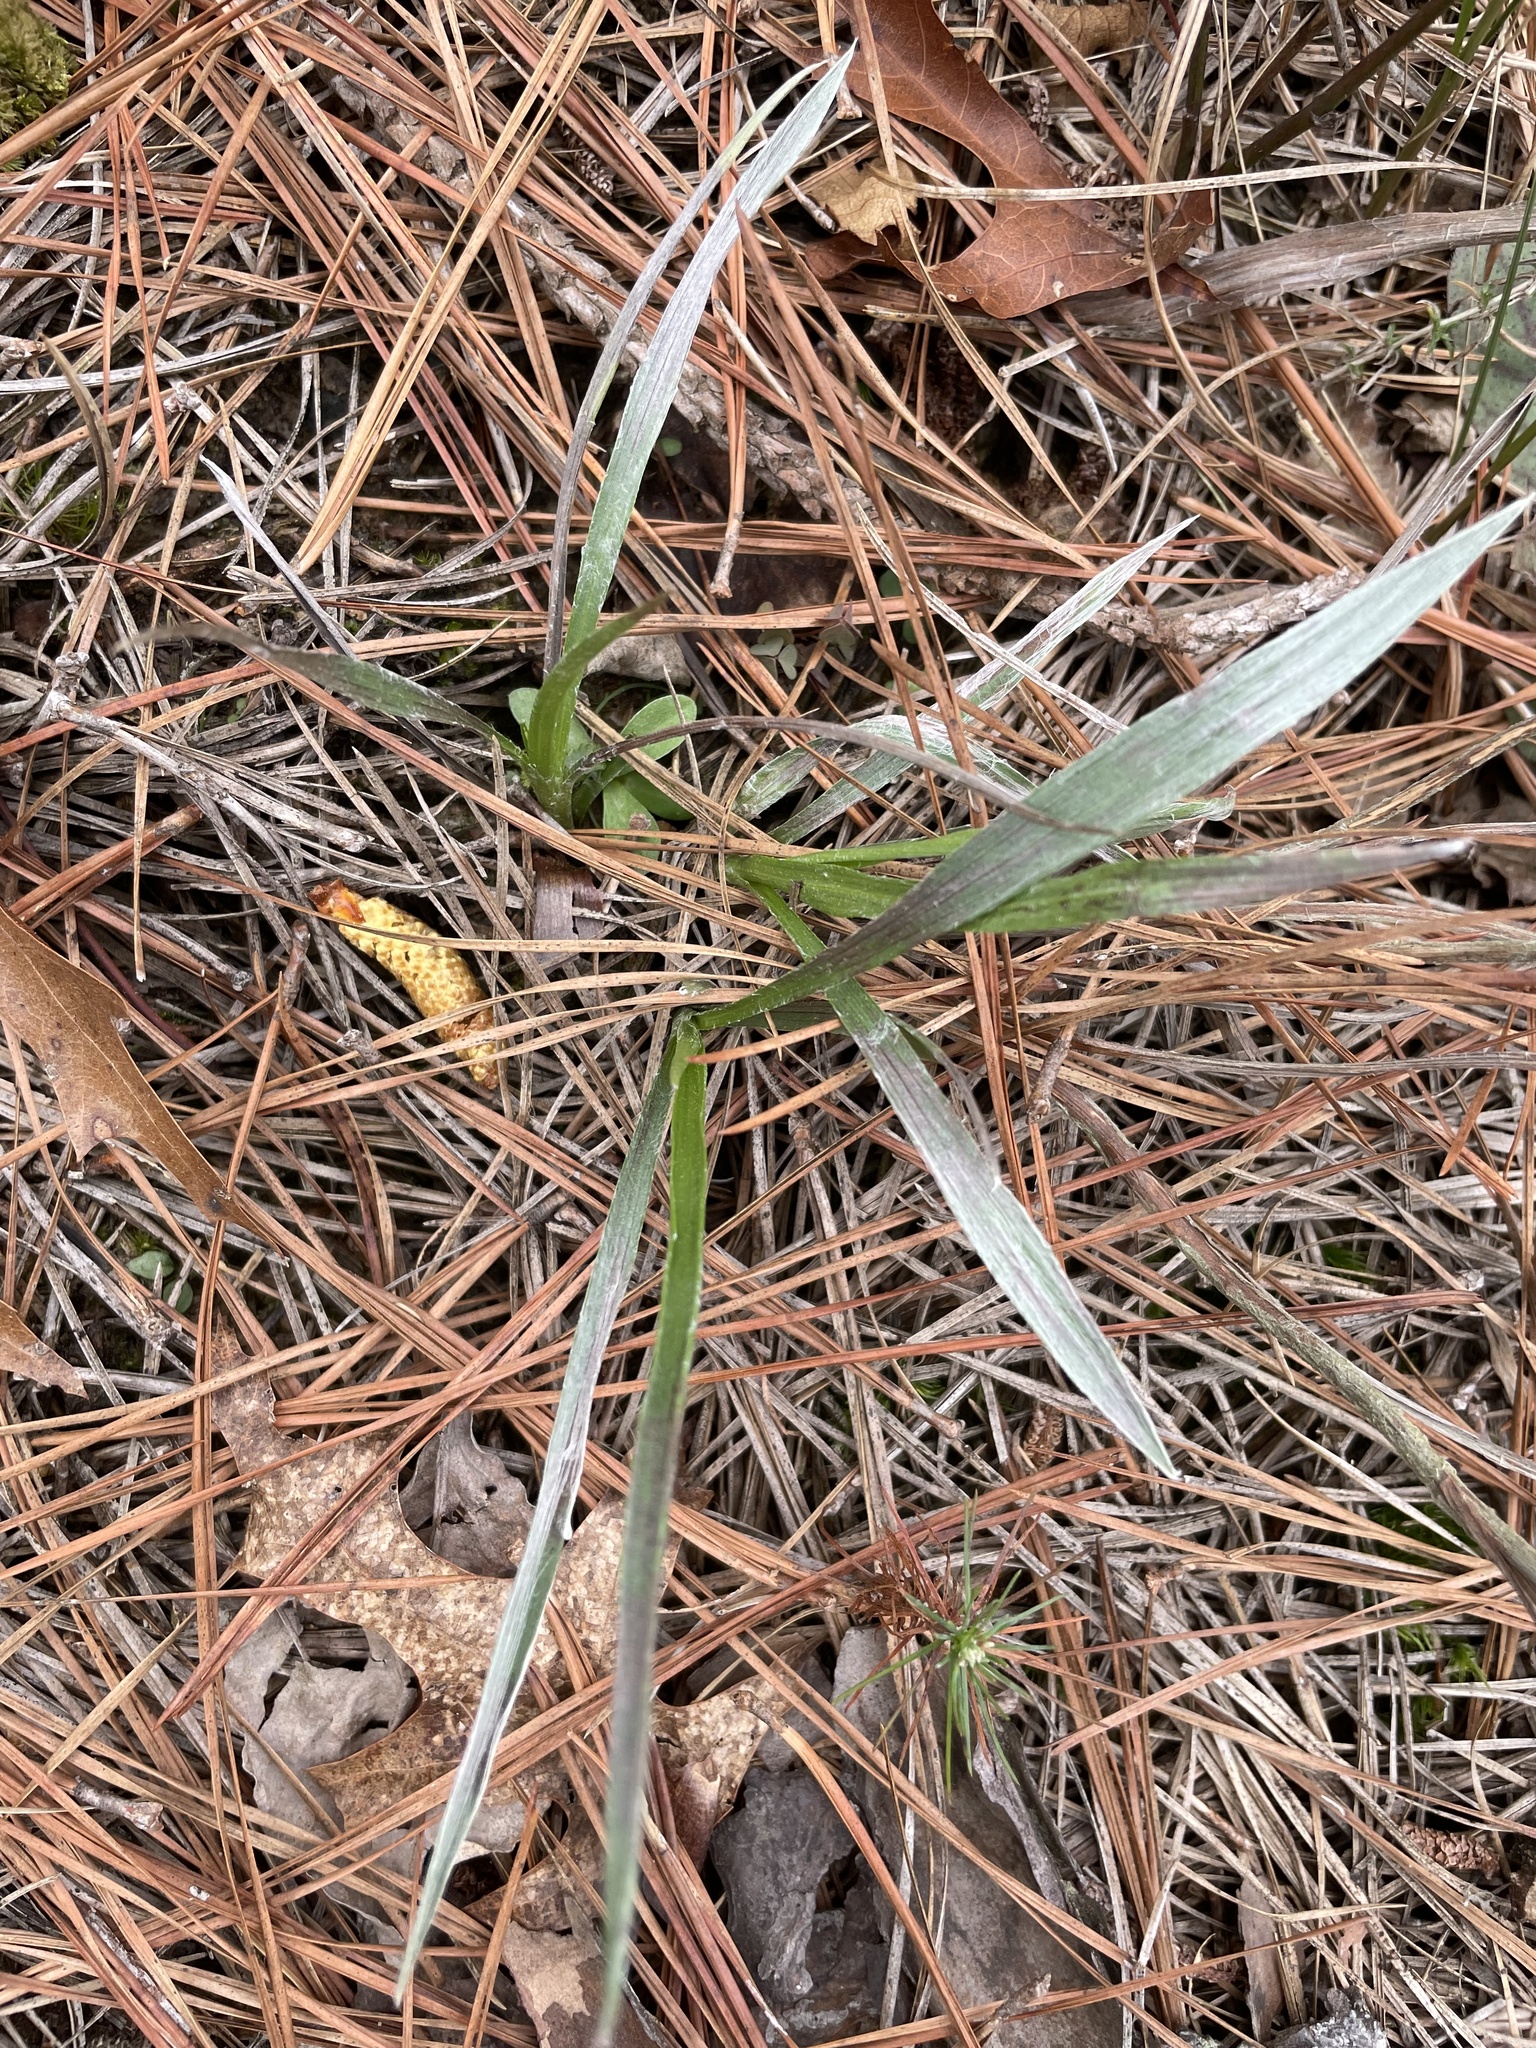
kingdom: Plantae
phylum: Tracheophyta
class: Magnoliopsida
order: Asterales
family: Asteraceae
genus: Pityopsis
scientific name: Pityopsis aspera
